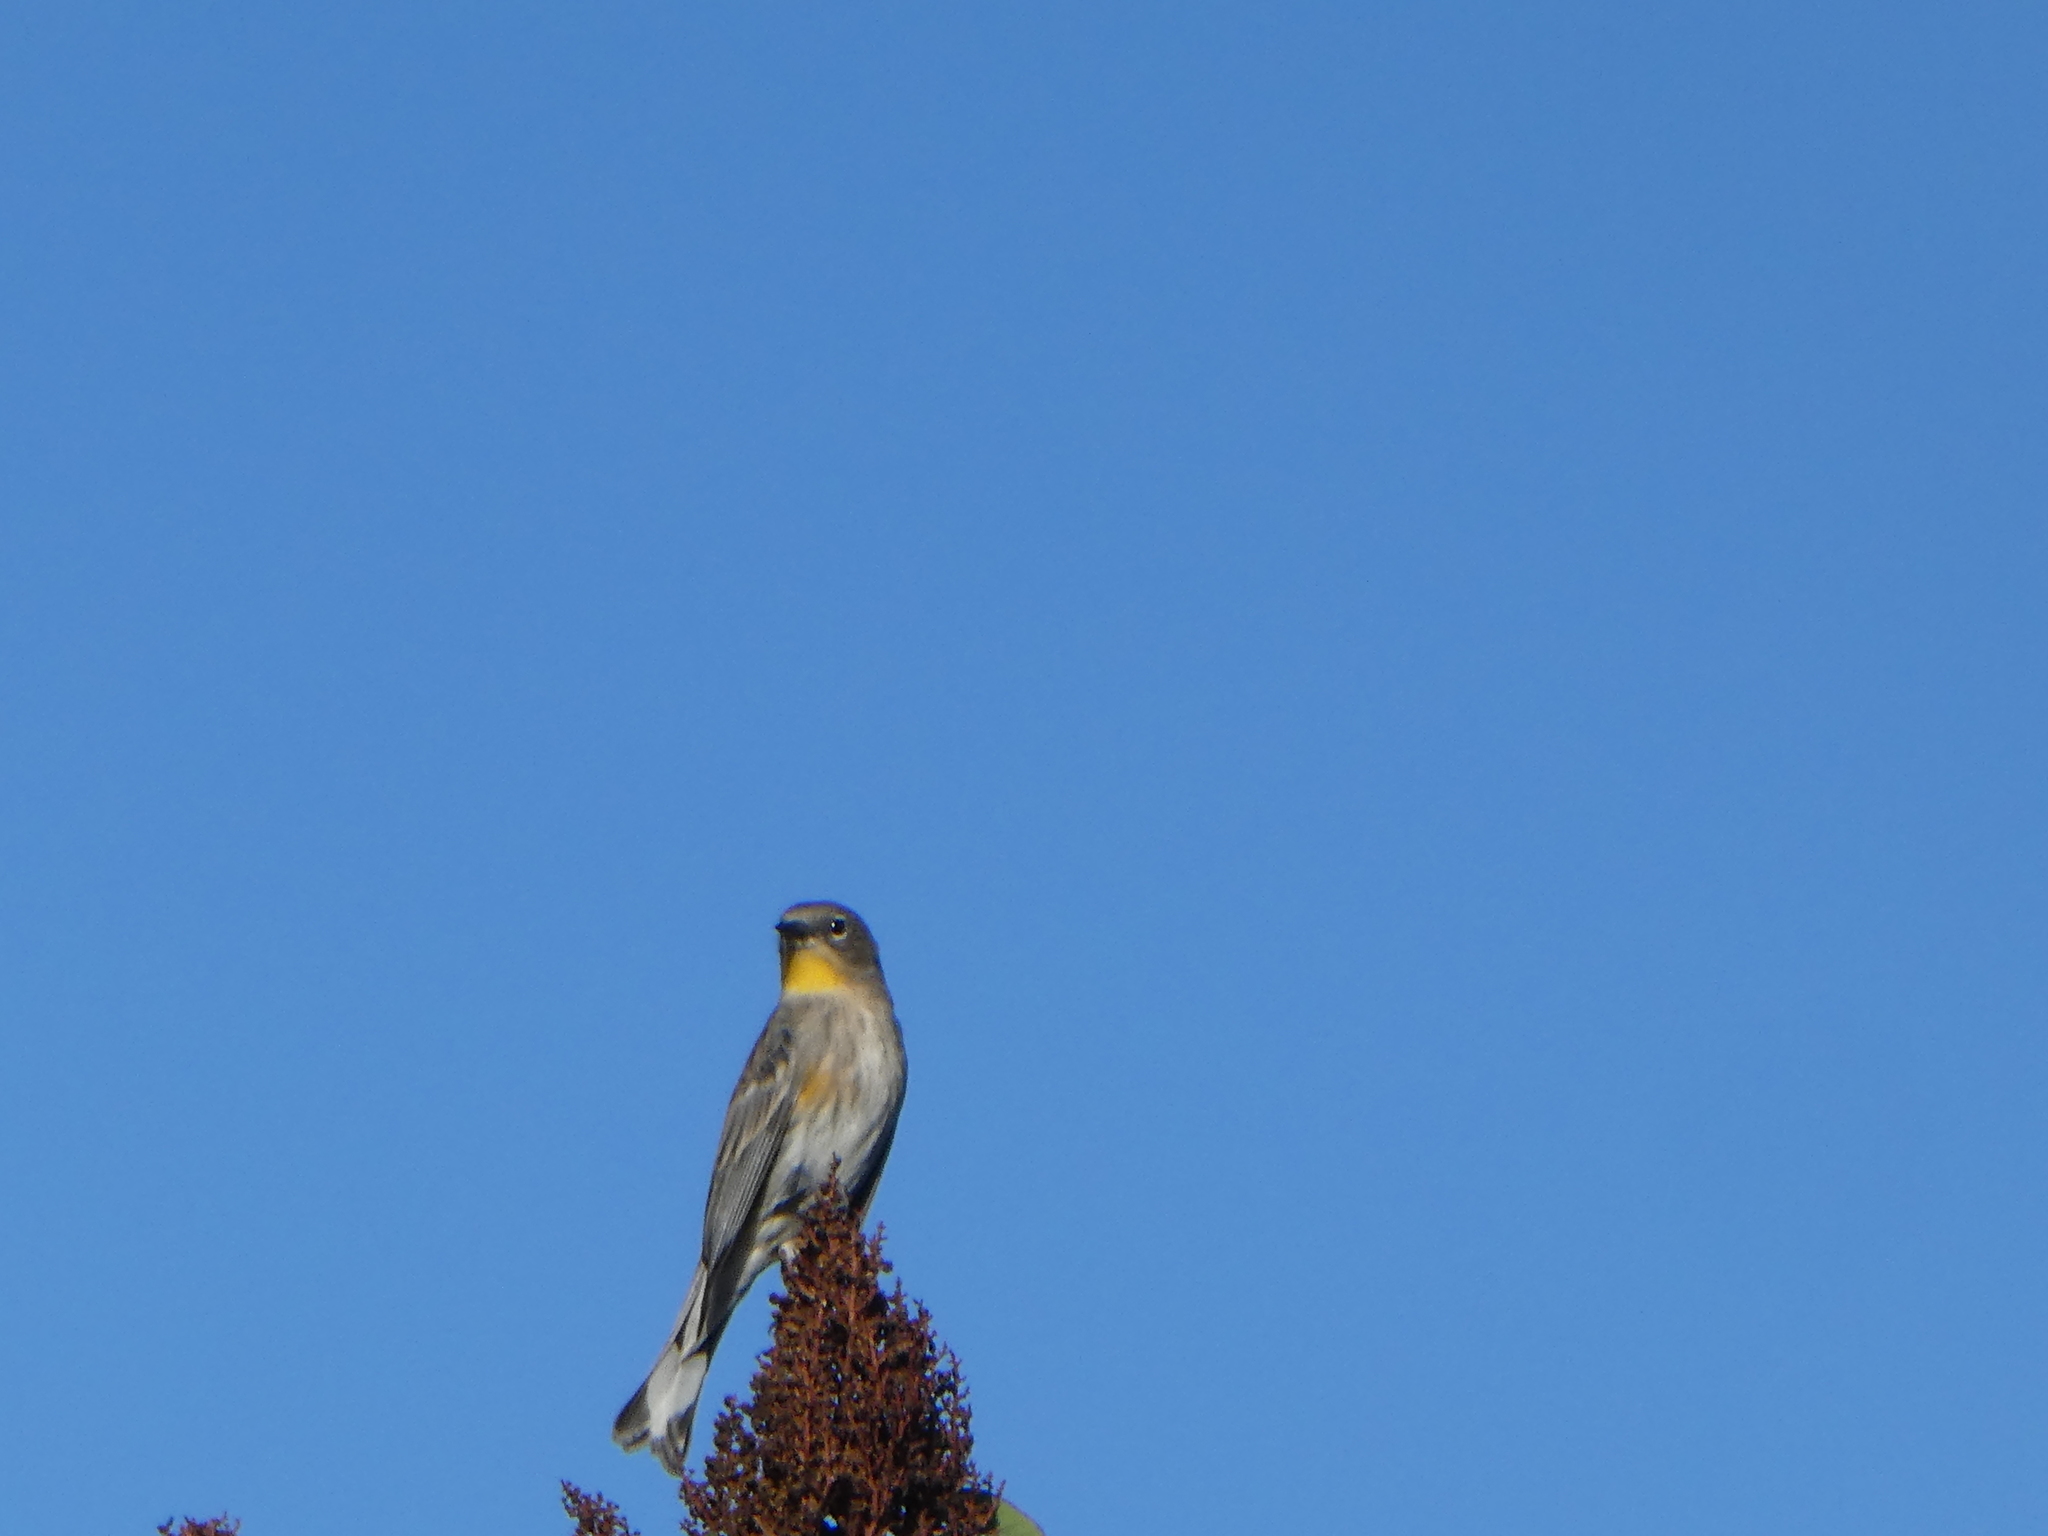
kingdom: Animalia
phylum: Chordata
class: Aves
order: Passeriformes
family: Parulidae
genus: Setophaga
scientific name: Setophaga coronata
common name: Myrtle warbler
